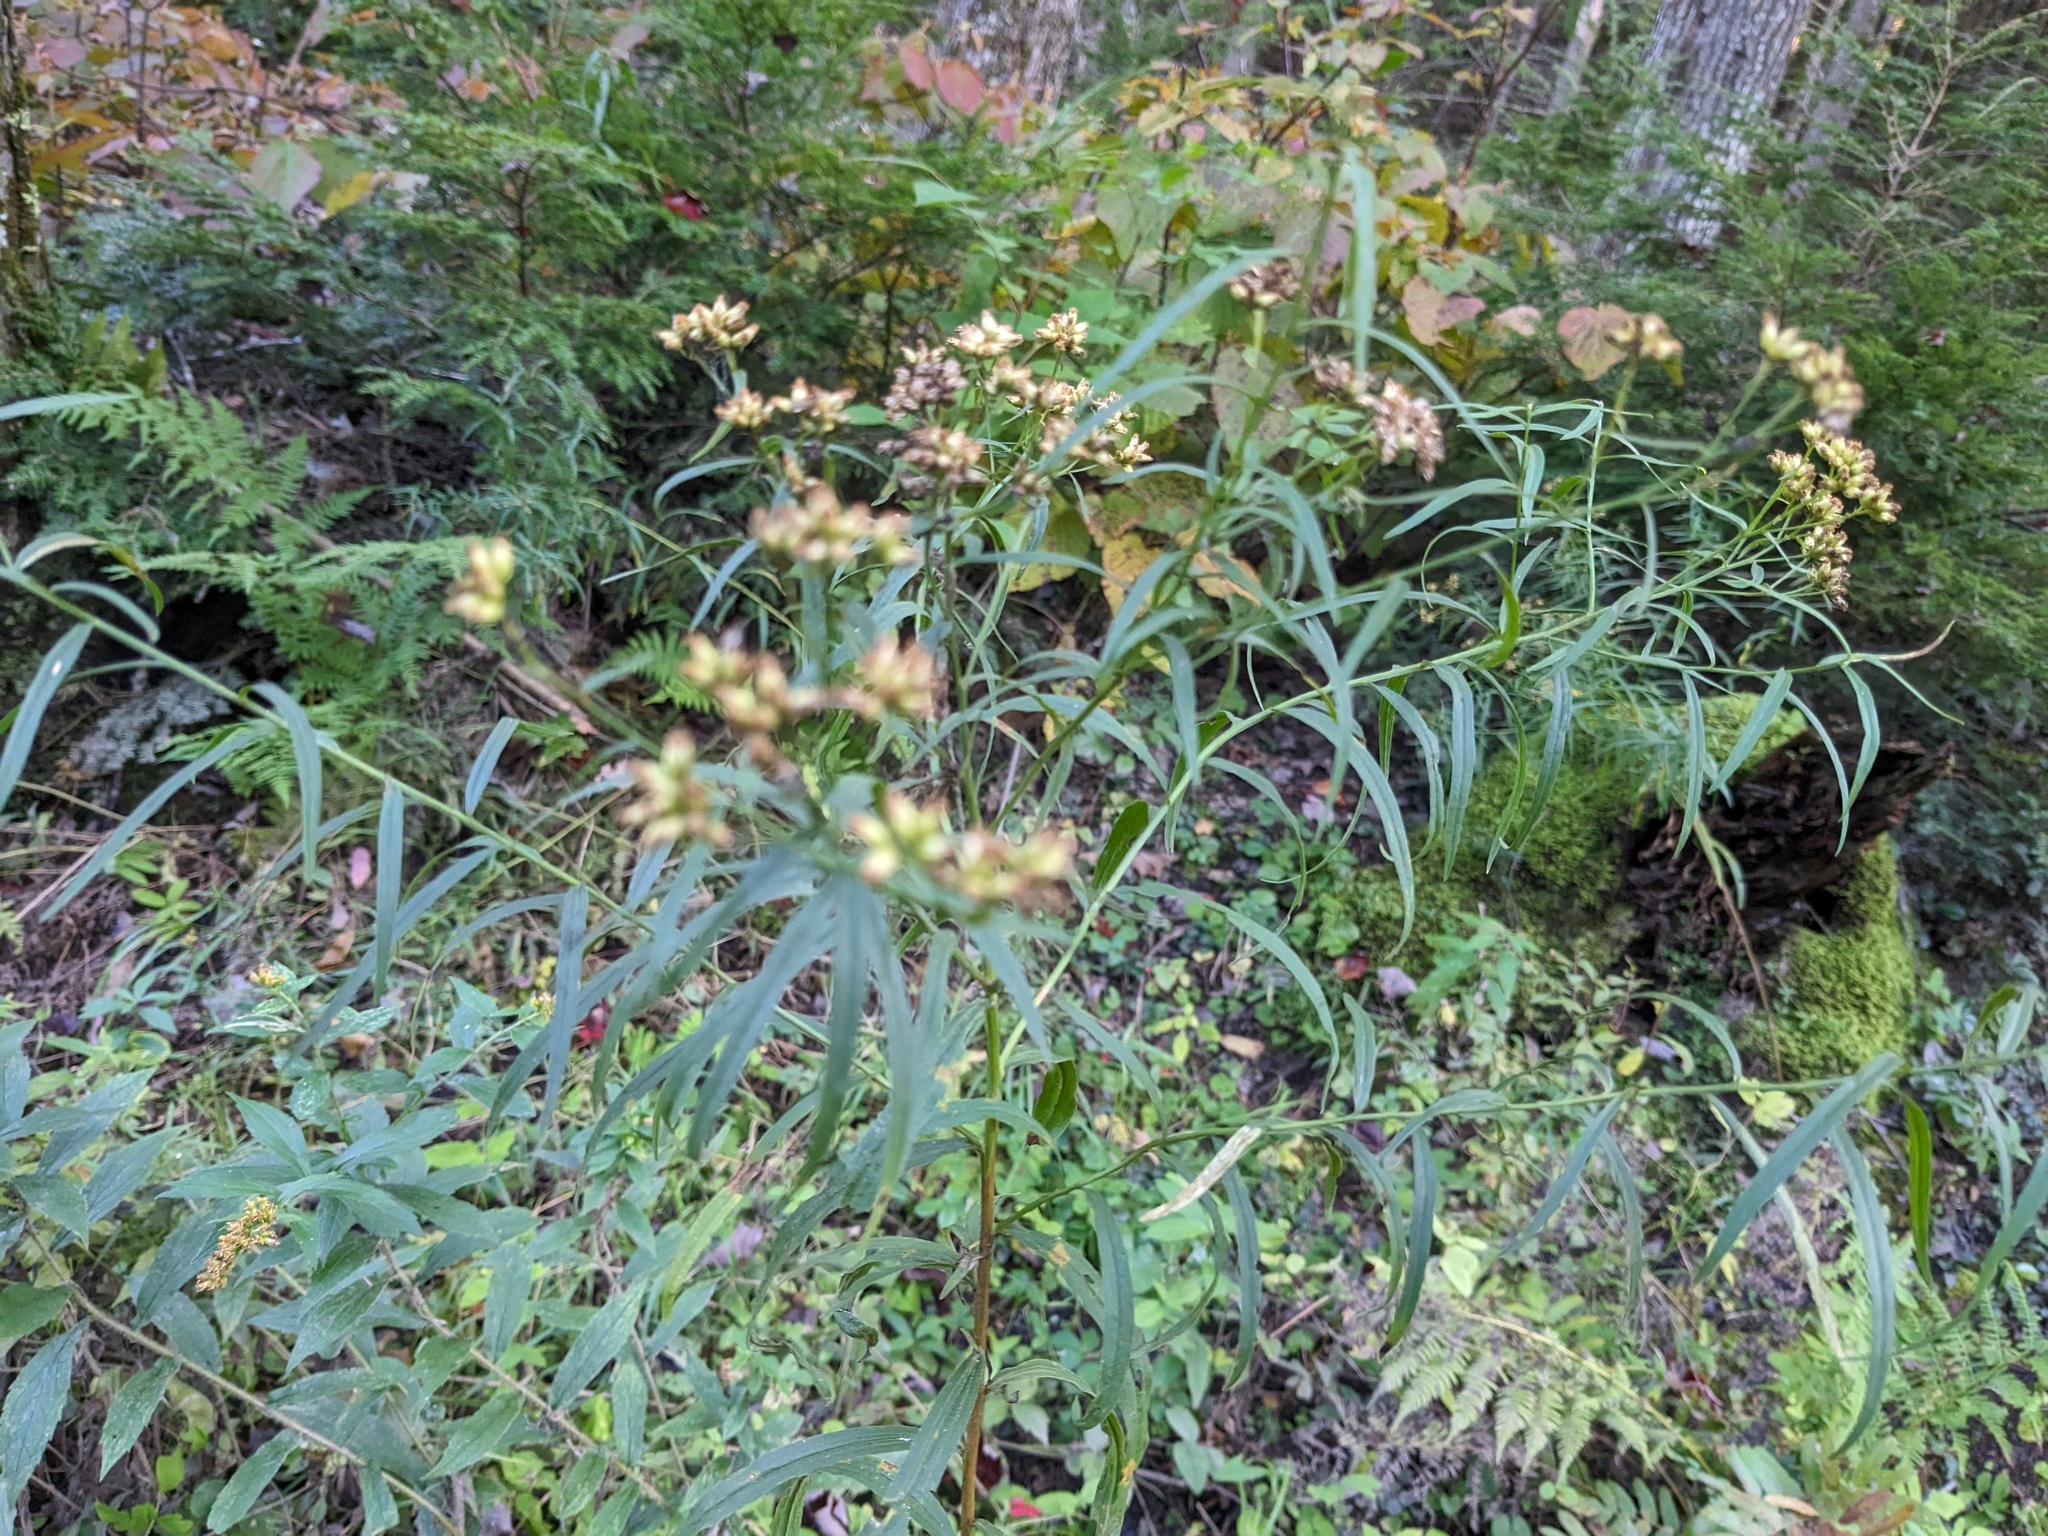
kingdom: Plantae
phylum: Tracheophyta
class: Magnoliopsida
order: Asterales
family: Asteraceae
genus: Euthamia
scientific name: Euthamia graminifolia
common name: Common goldentop
